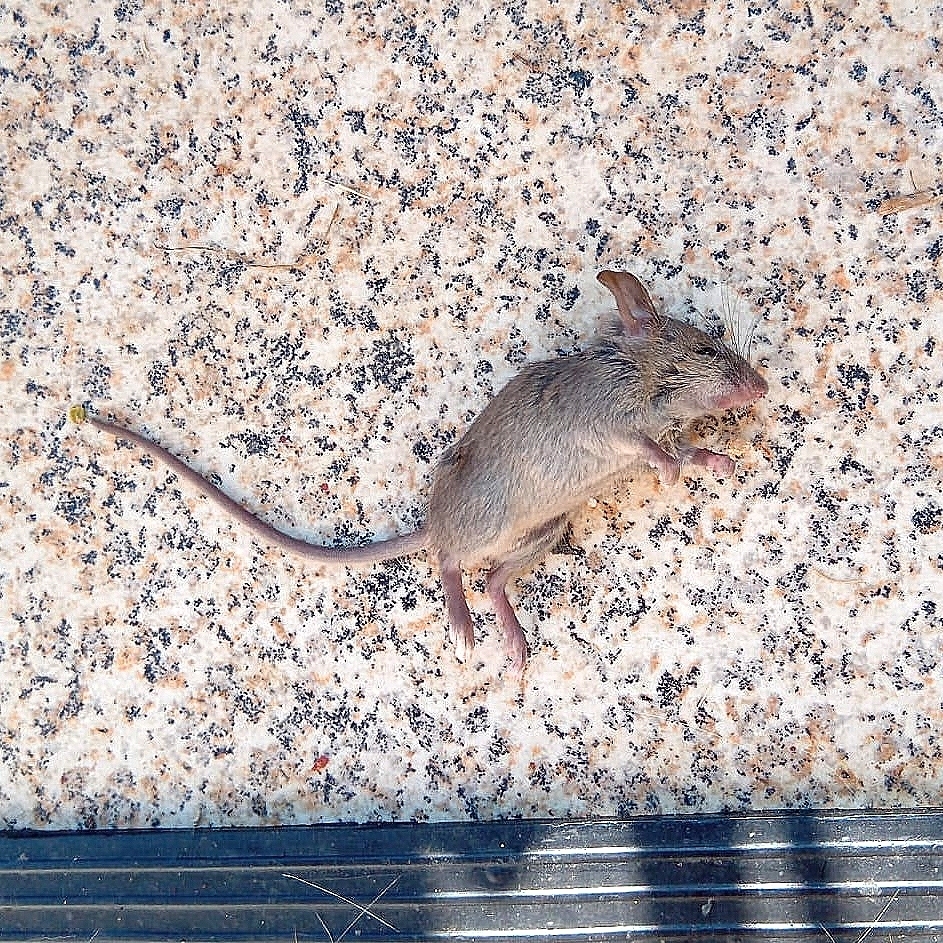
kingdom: Animalia
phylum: Chordata
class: Mammalia
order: Rodentia
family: Muridae
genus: Mus
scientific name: Mus musculus
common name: House mouse
